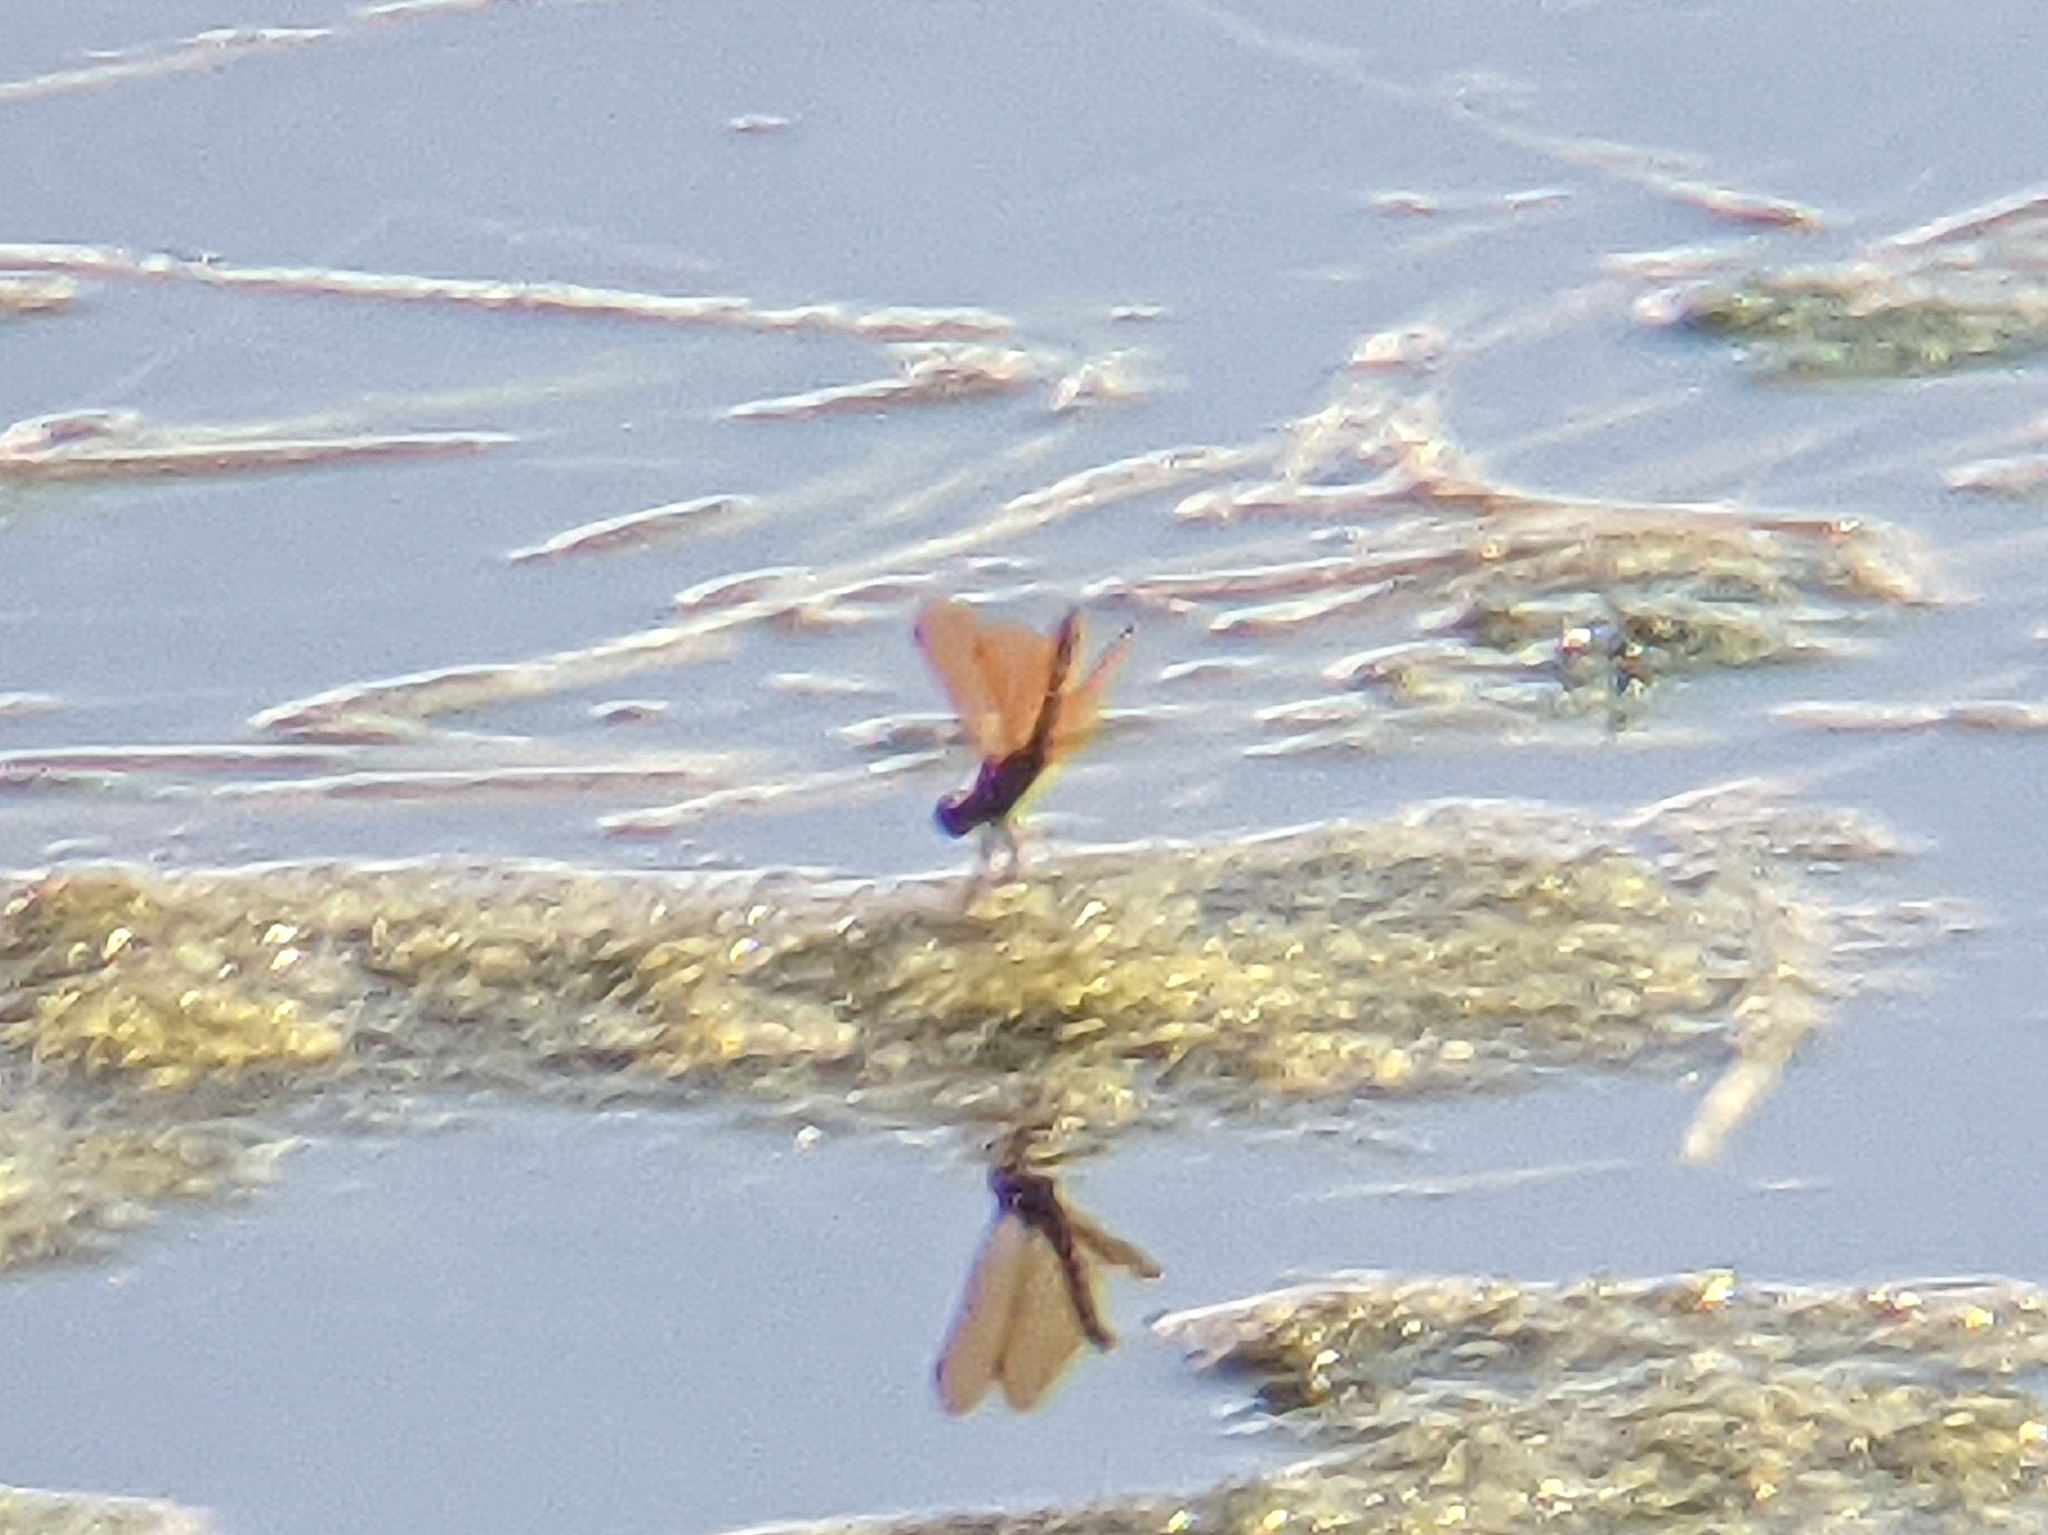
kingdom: Animalia
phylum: Arthropoda
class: Insecta
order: Odonata
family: Libellulidae
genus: Perithemis
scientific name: Perithemis tenera
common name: Eastern amberwing
